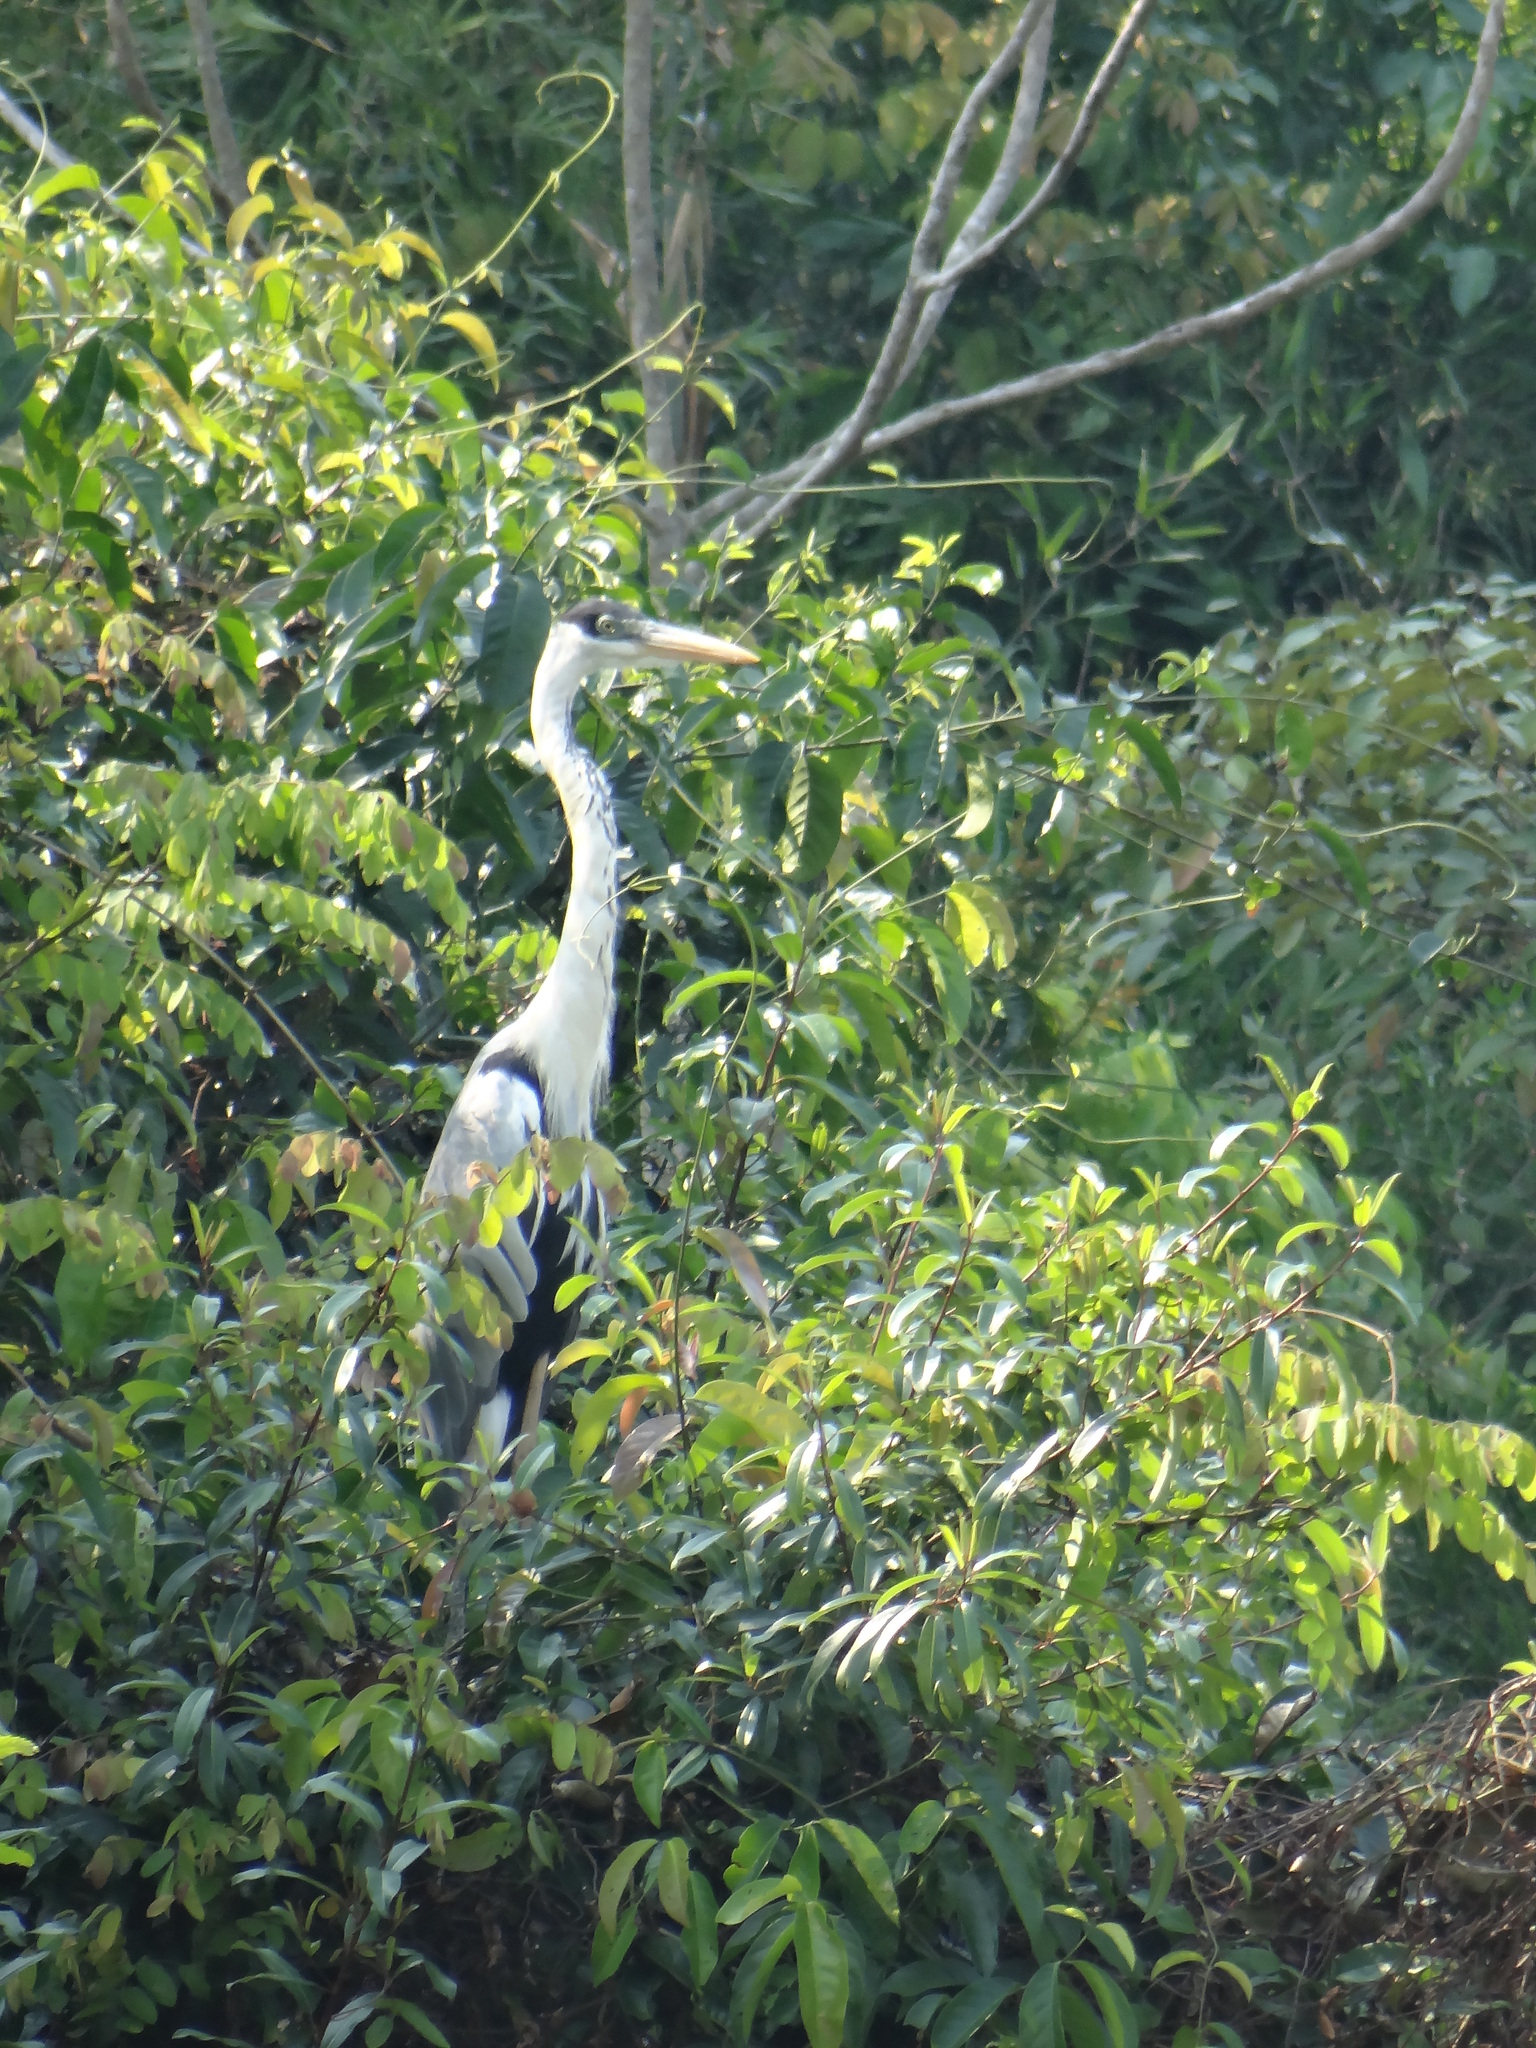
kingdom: Animalia
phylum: Chordata
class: Aves
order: Pelecaniformes
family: Ardeidae
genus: Ardea
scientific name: Ardea cocoi
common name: Cocoi heron
